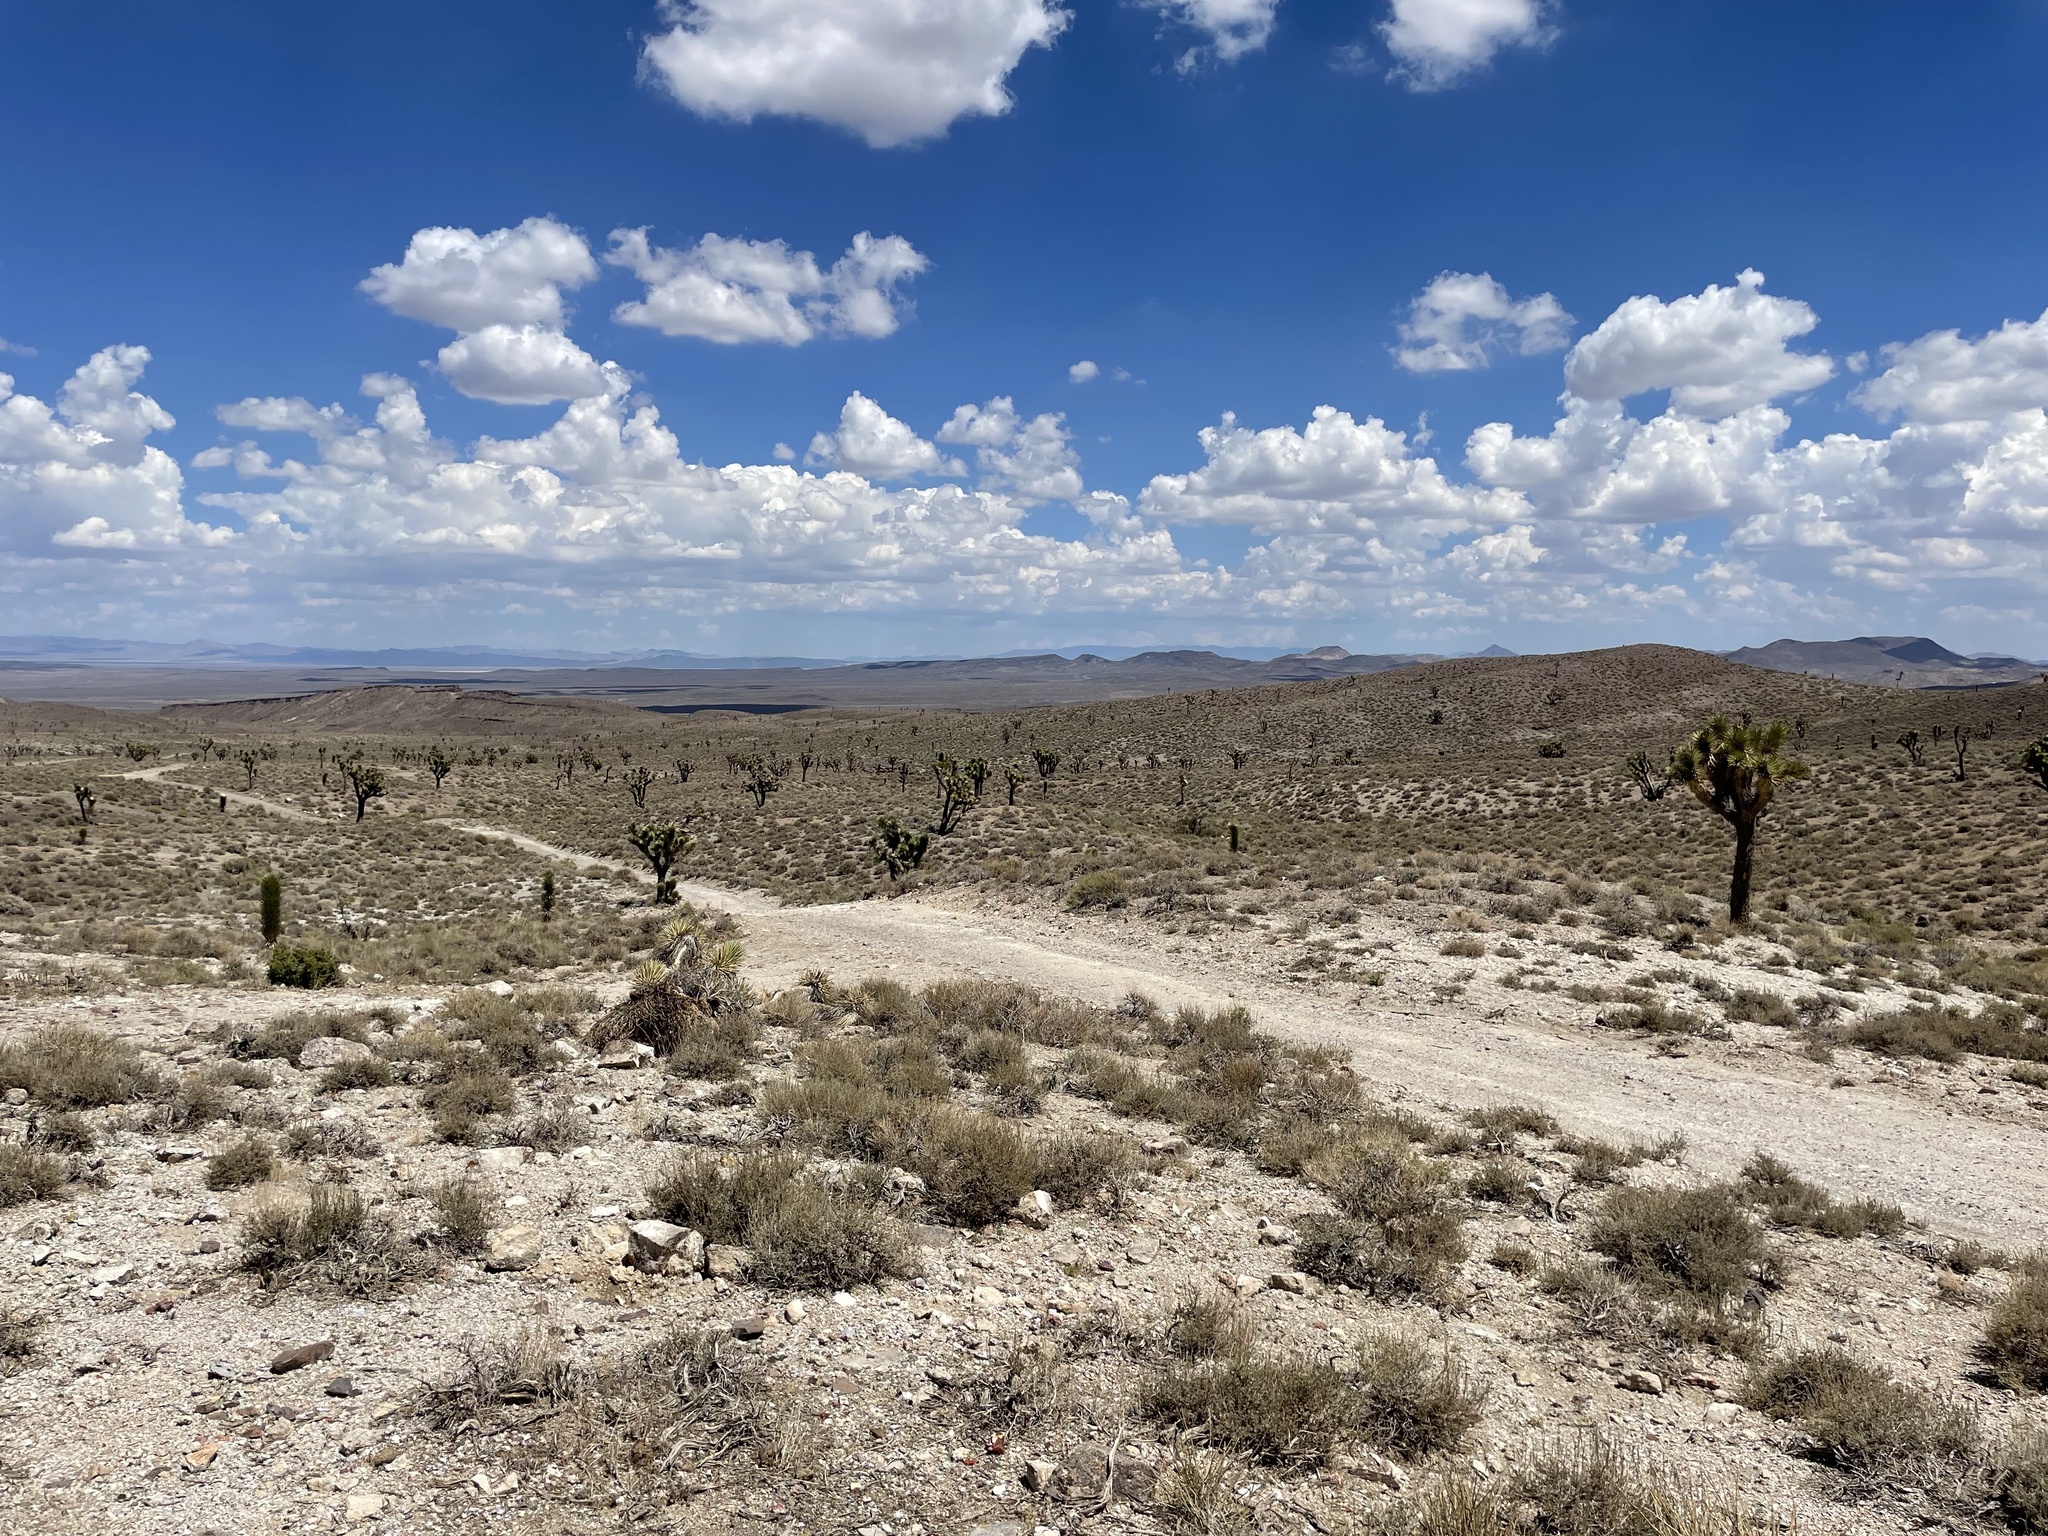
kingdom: Plantae
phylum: Tracheophyta
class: Liliopsida
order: Asparagales
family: Asparagaceae
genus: Yucca
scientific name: Yucca brevifolia
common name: Joshua tree
